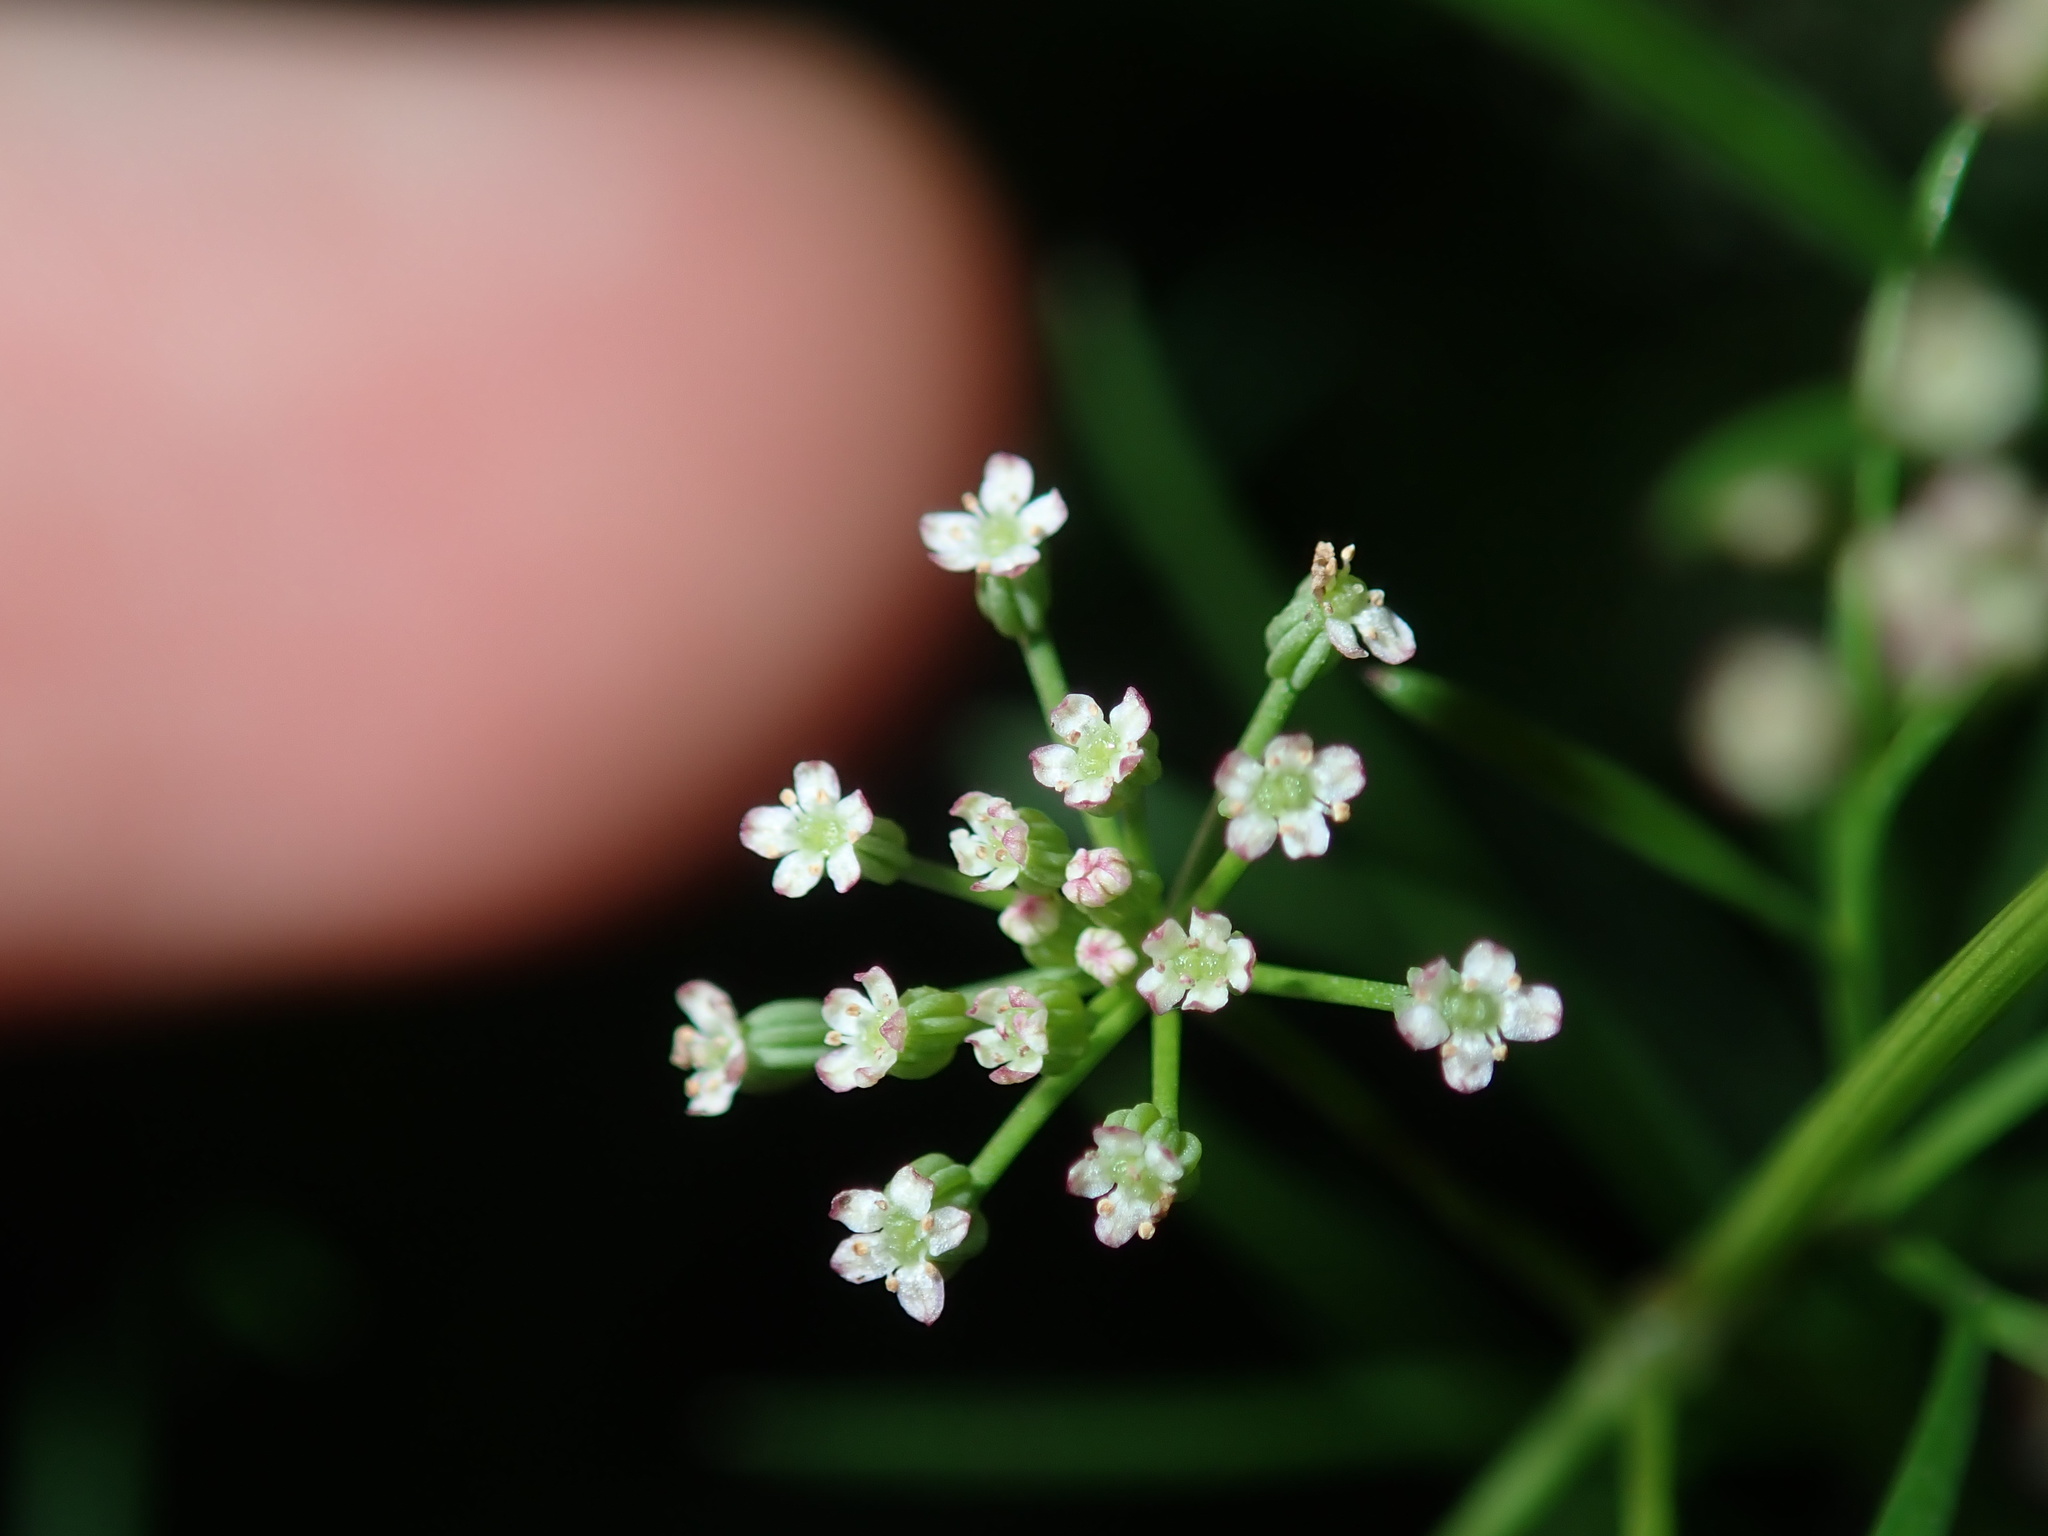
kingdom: Plantae
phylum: Tracheophyta
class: Magnoliopsida
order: Apiales
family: Apiaceae
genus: Cyclospermum
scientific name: Cyclospermum leptophyllum
